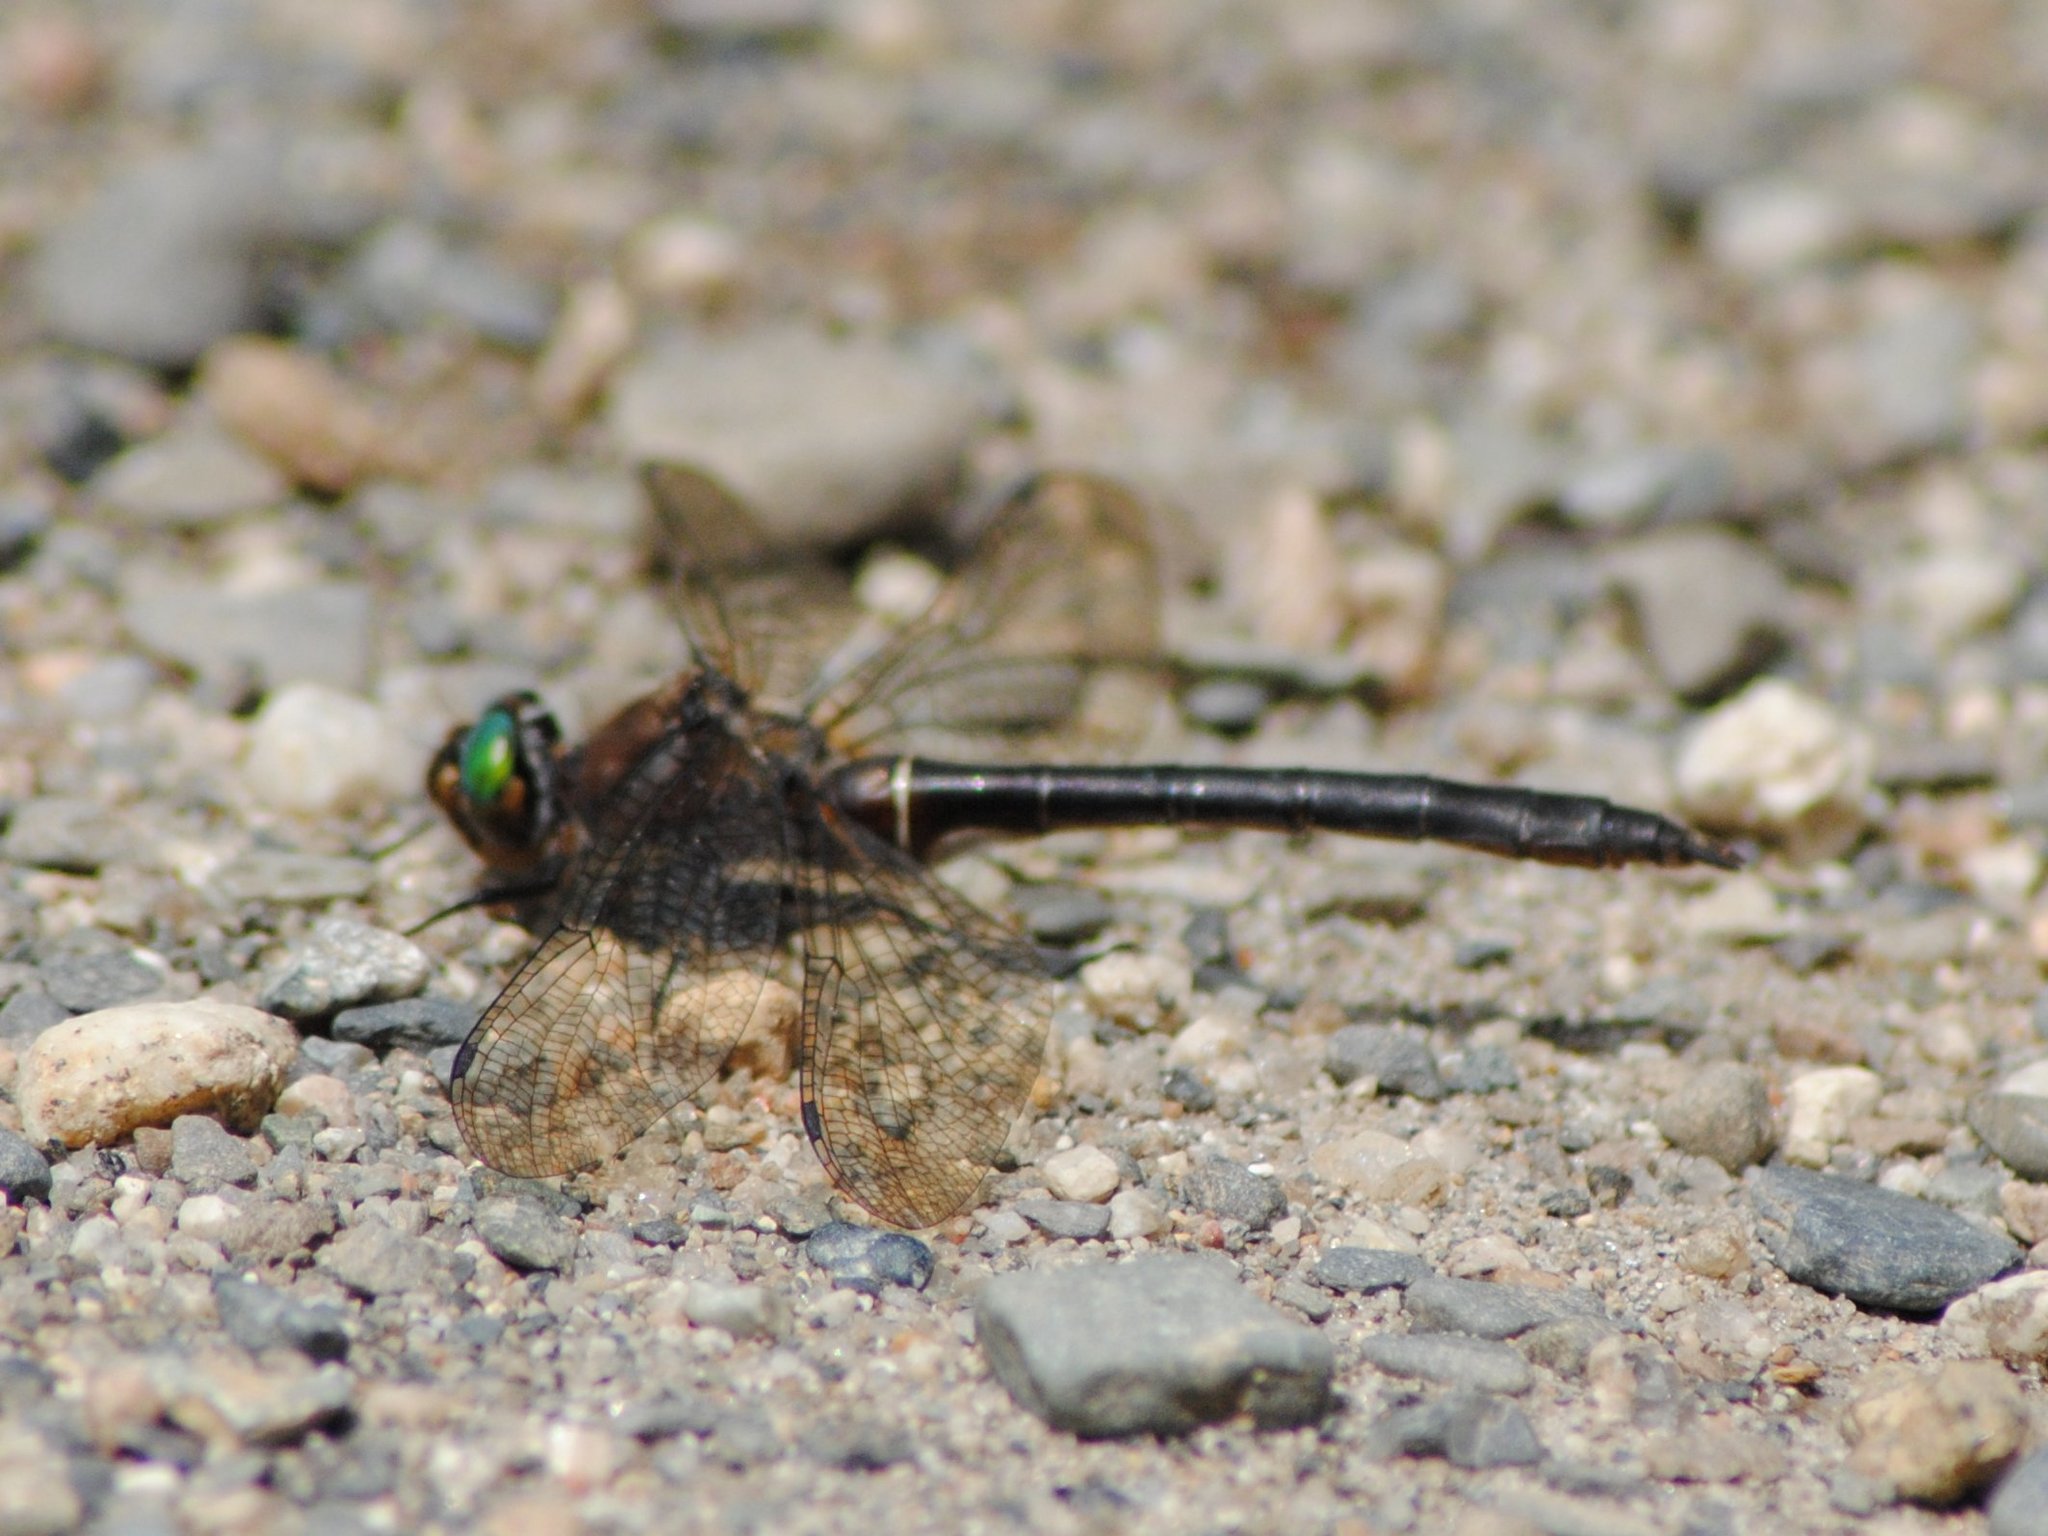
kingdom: Animalia
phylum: Arthropoda
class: Insecta
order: Odonata
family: Corduliidae
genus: Cordulia
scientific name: Cordulia shurtleffii
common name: American emerald
